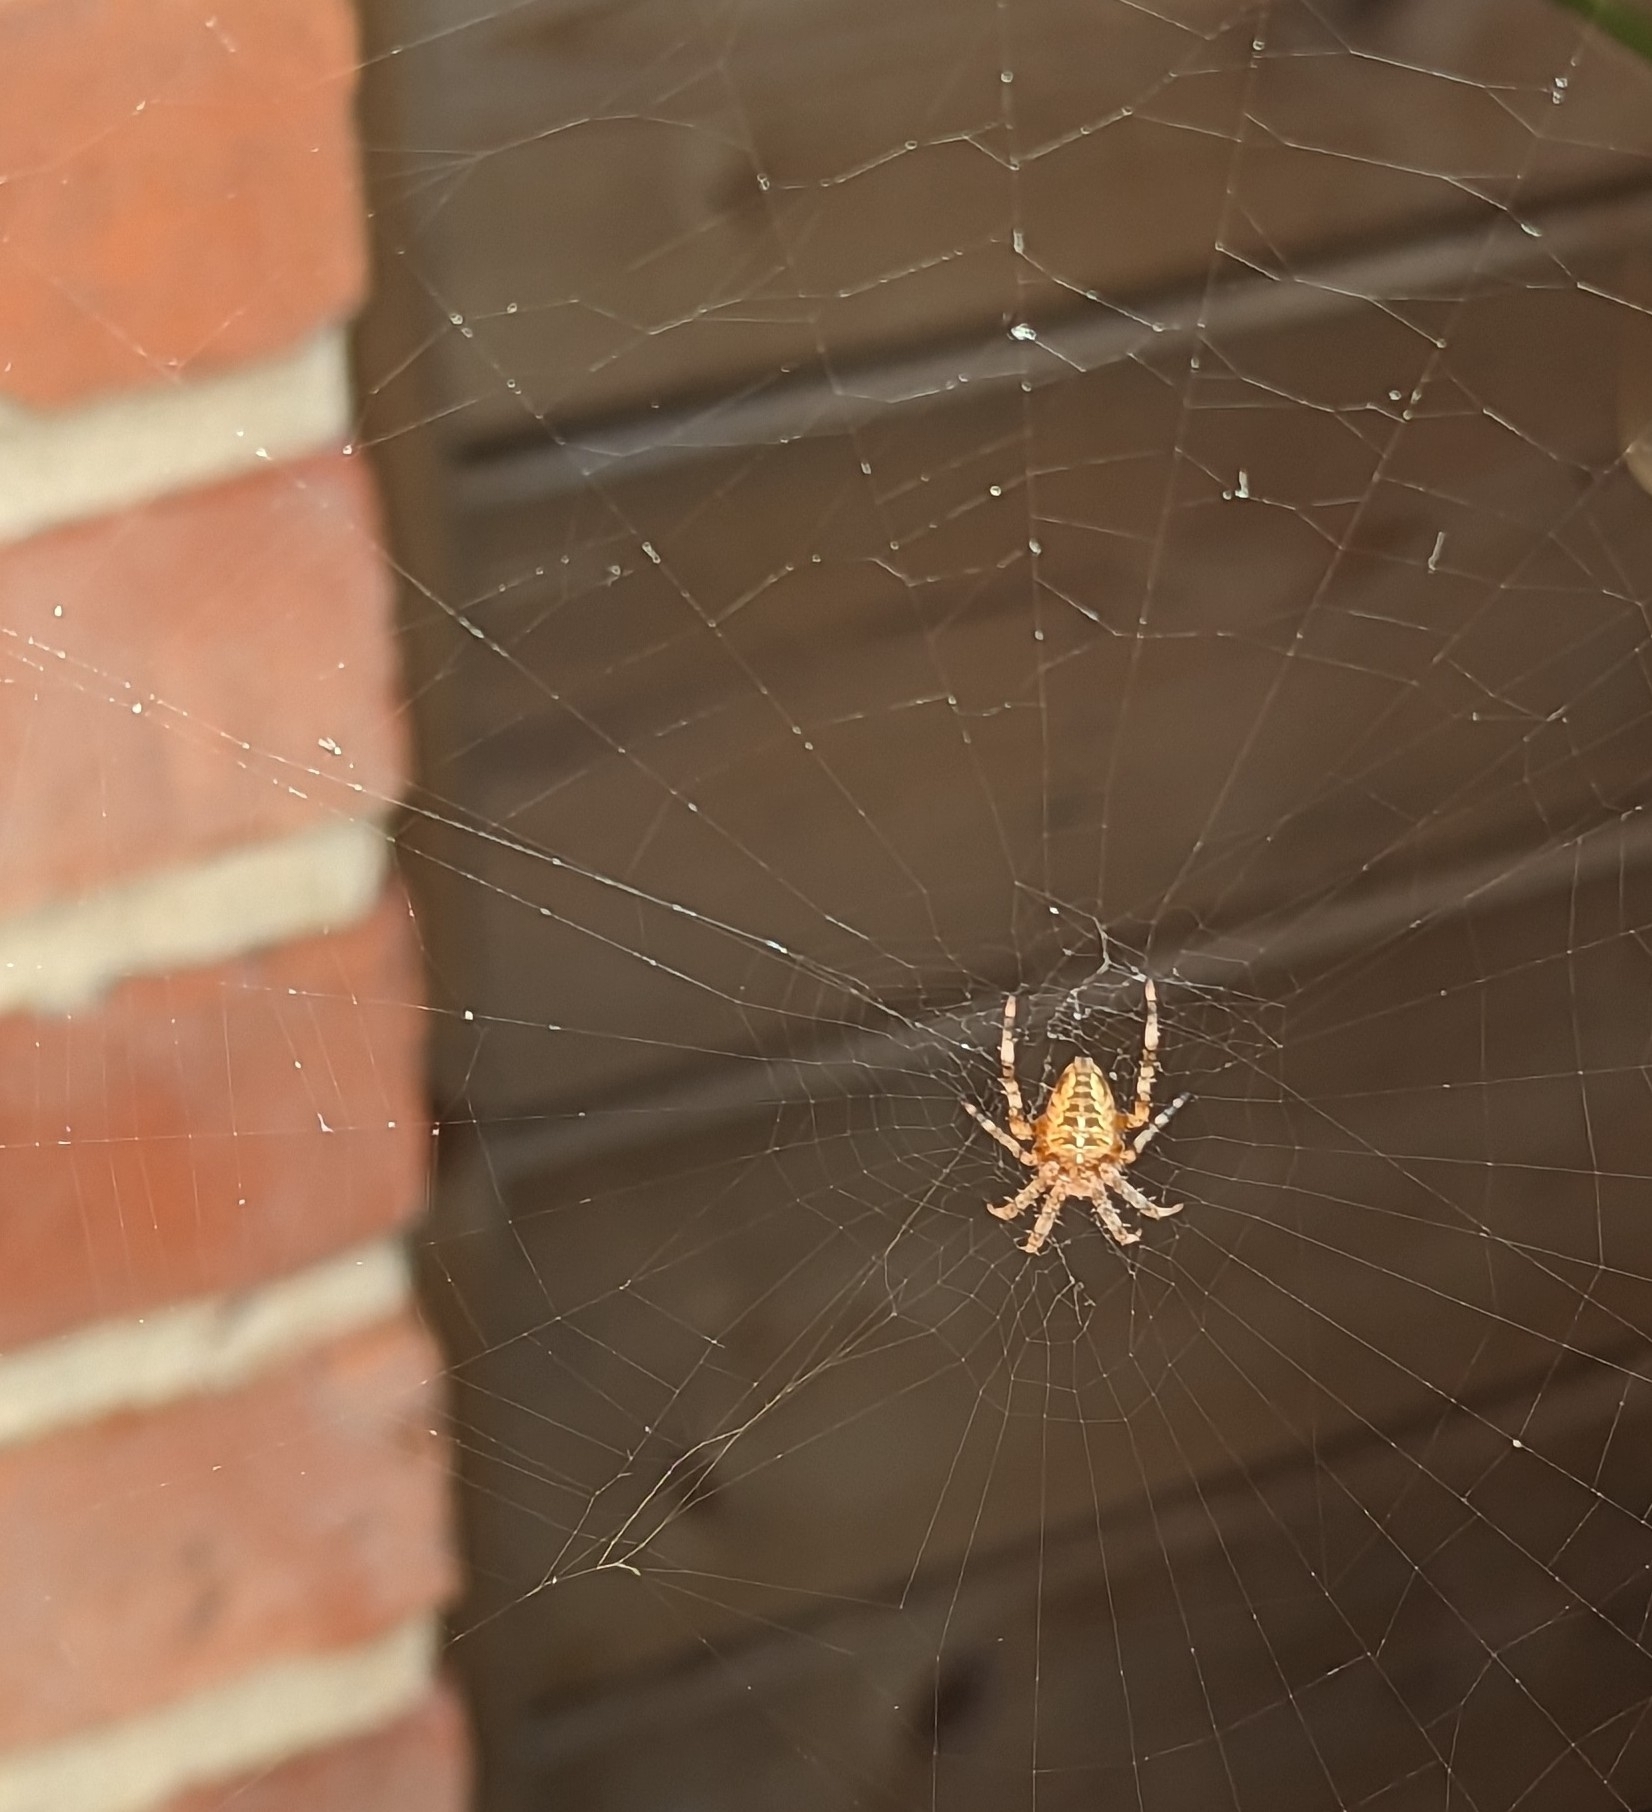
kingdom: Animalia
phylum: Arthropoda
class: Arachnida
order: Araneae
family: Araneidae
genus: Araneus
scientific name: Araneus diadematus
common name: Cross orbweaver
